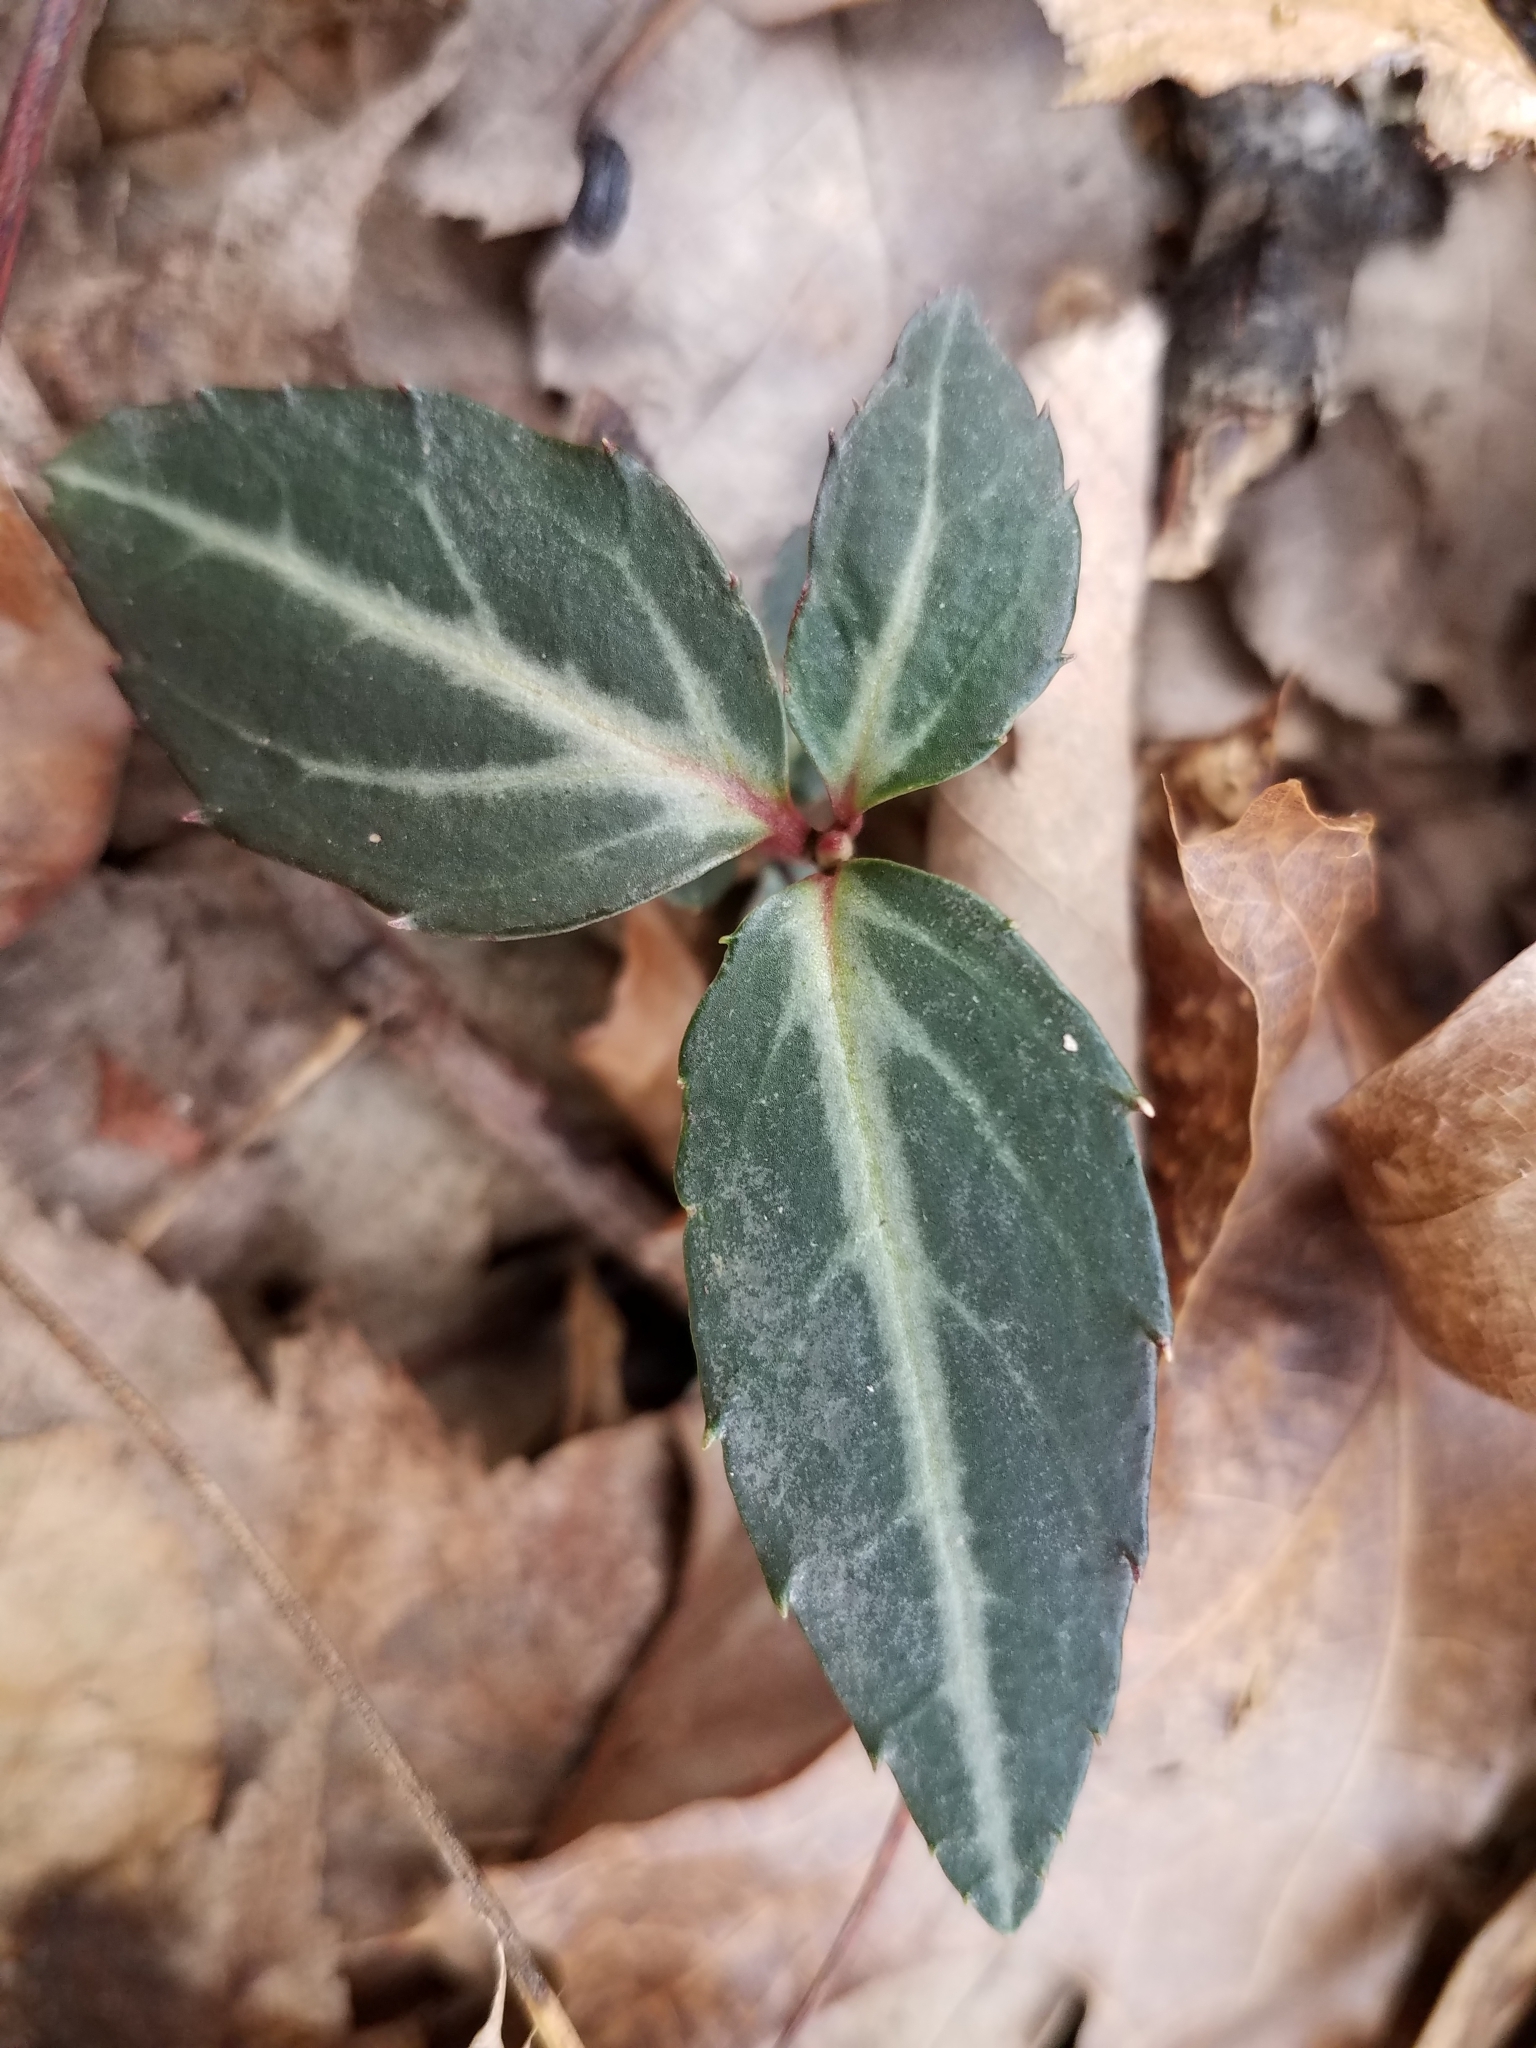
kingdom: Plantae
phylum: Tracheophyta
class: Magnoliopsida
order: Ericales
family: Ericaceae
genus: Chimaphila
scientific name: Chimaphila maculata
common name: Spotted pipsissewa
